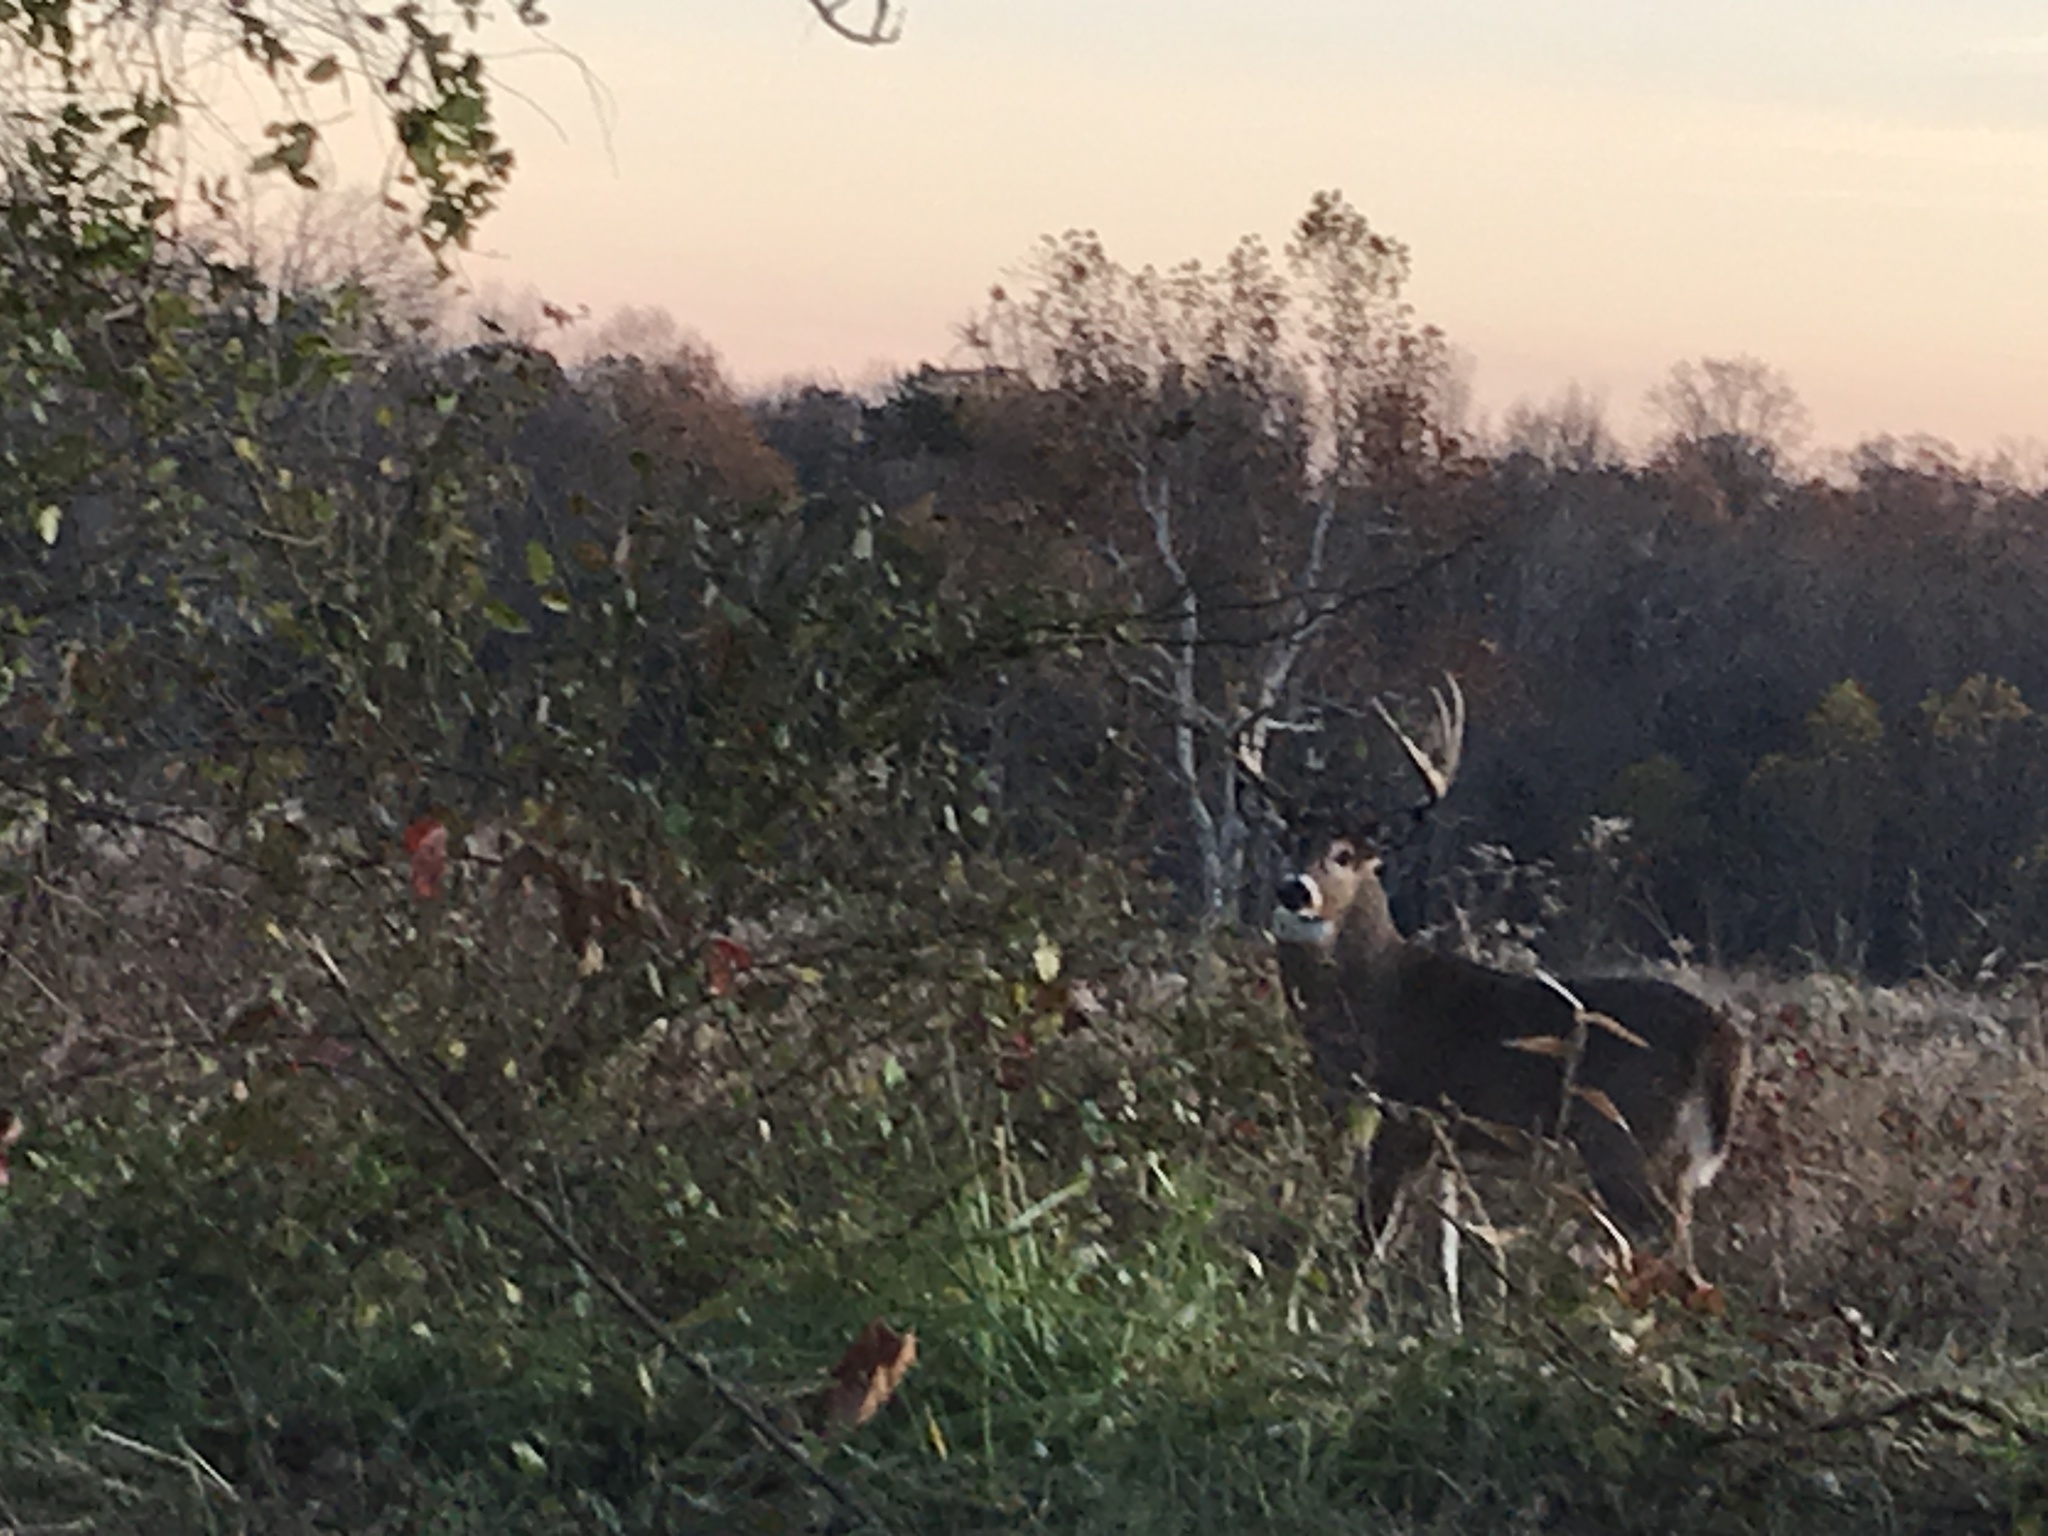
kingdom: Animalia
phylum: Chordata
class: Mammalia
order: Artiodactyla
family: Cervidae
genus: Odocoileus
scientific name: Odocoileus virginianus
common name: White-tailed deer
